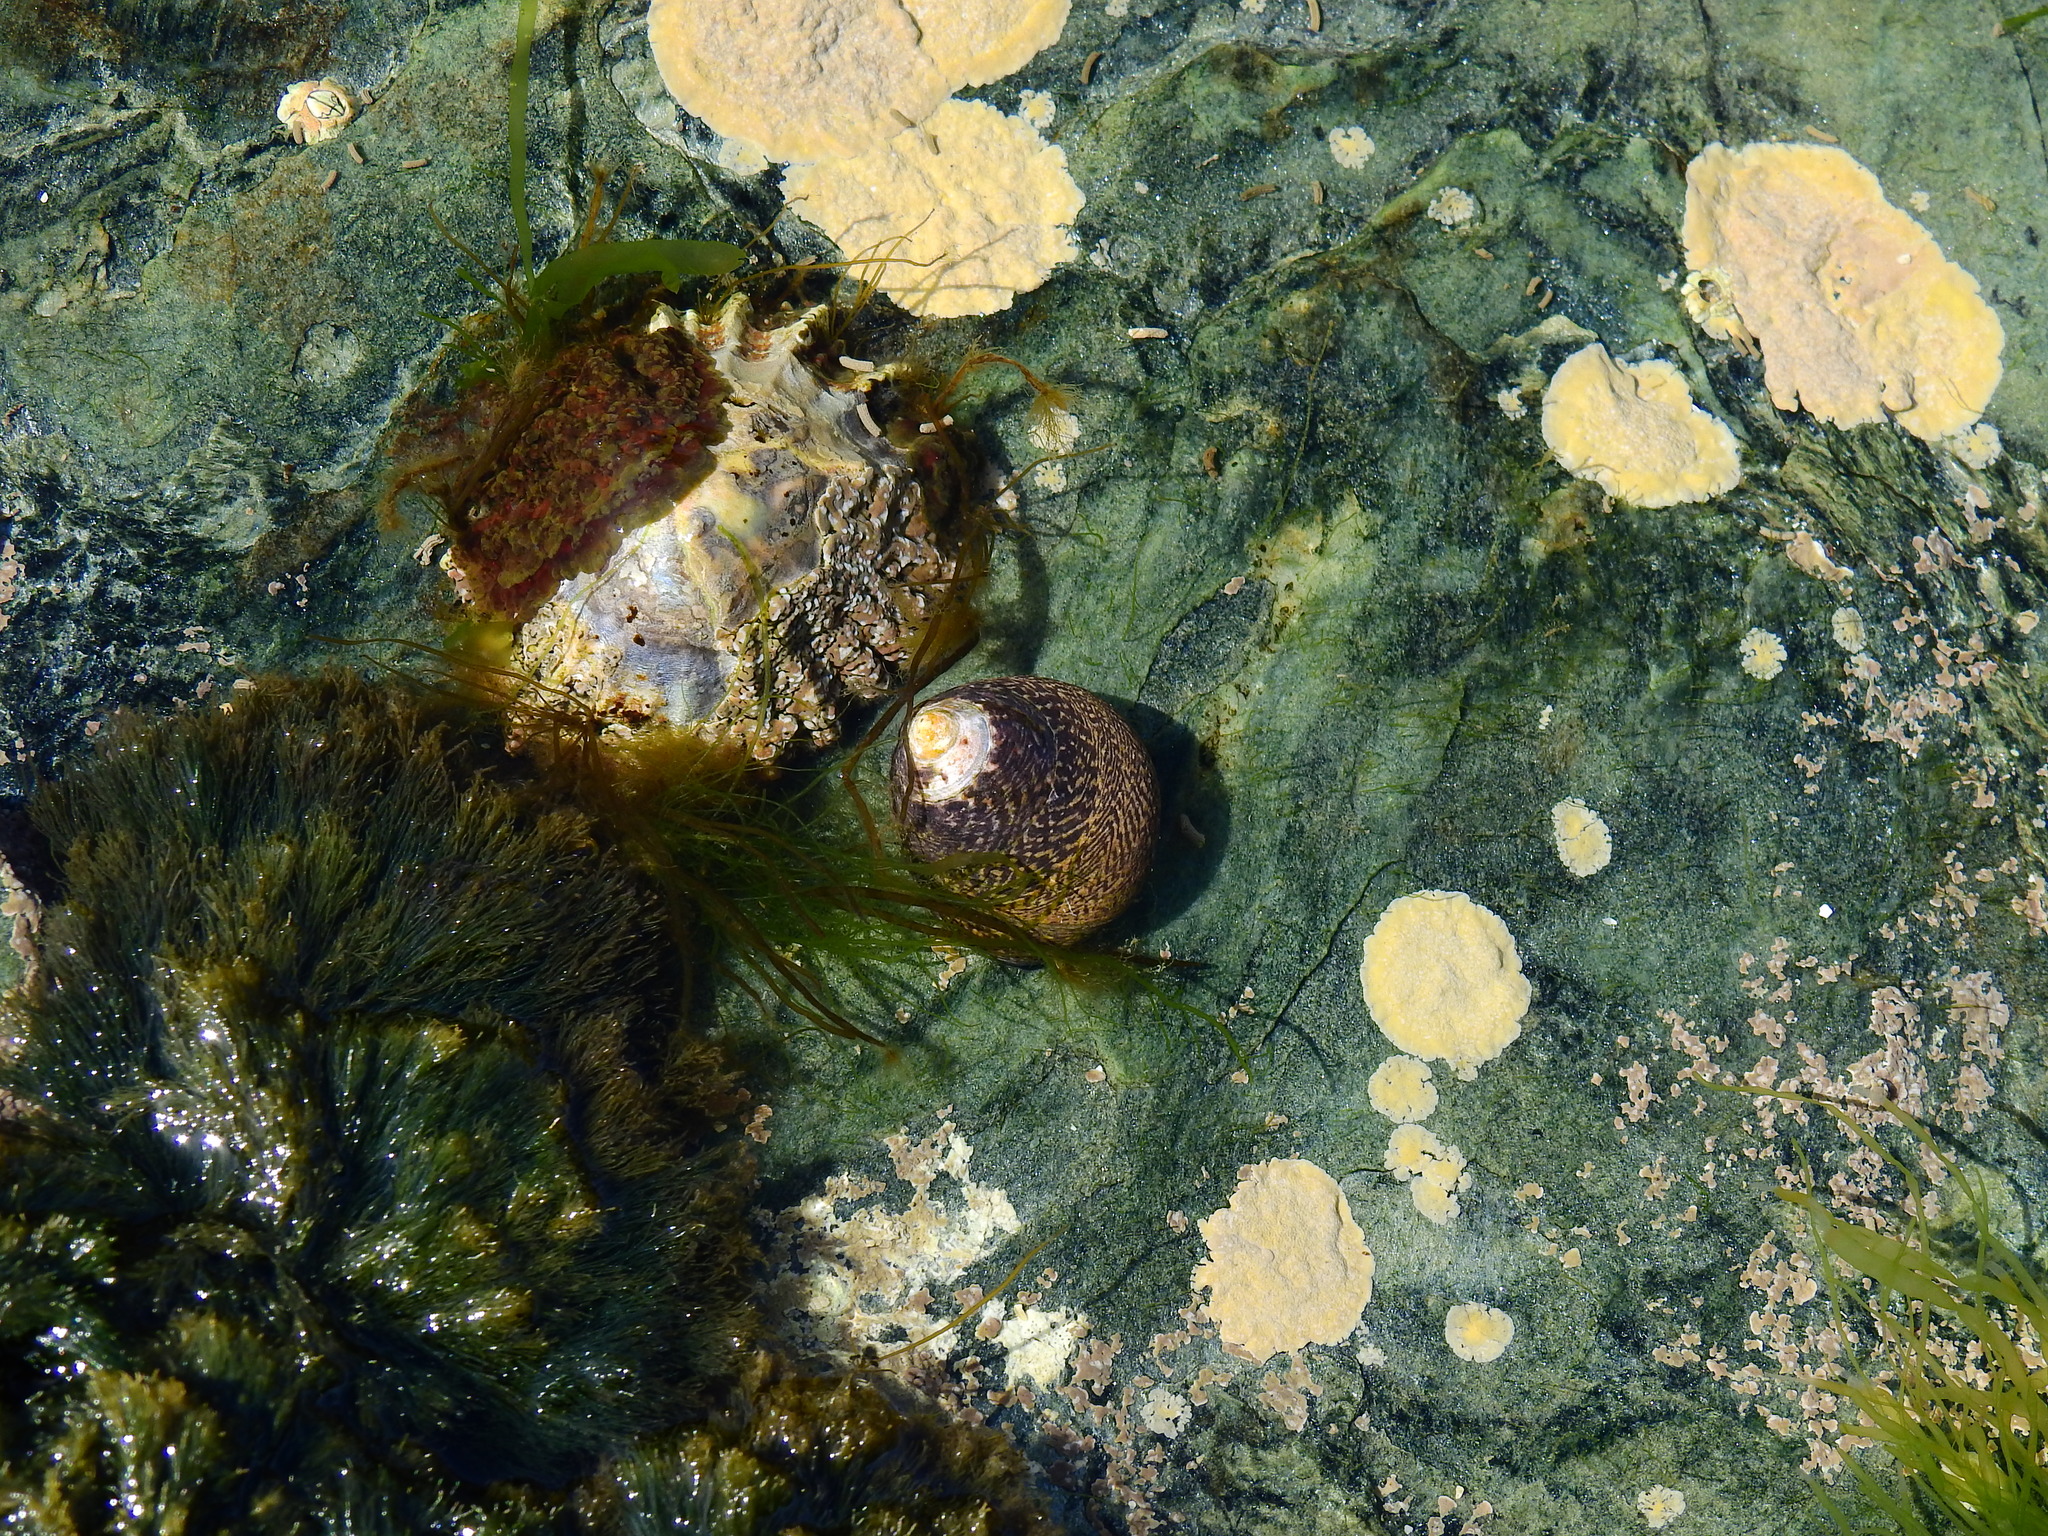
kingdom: Animalia
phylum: Mollusca
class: Gastropoda
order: Trochida
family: Trochidae
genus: Phorcus
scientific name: Phorcus lineatus
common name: Toothed top shell
